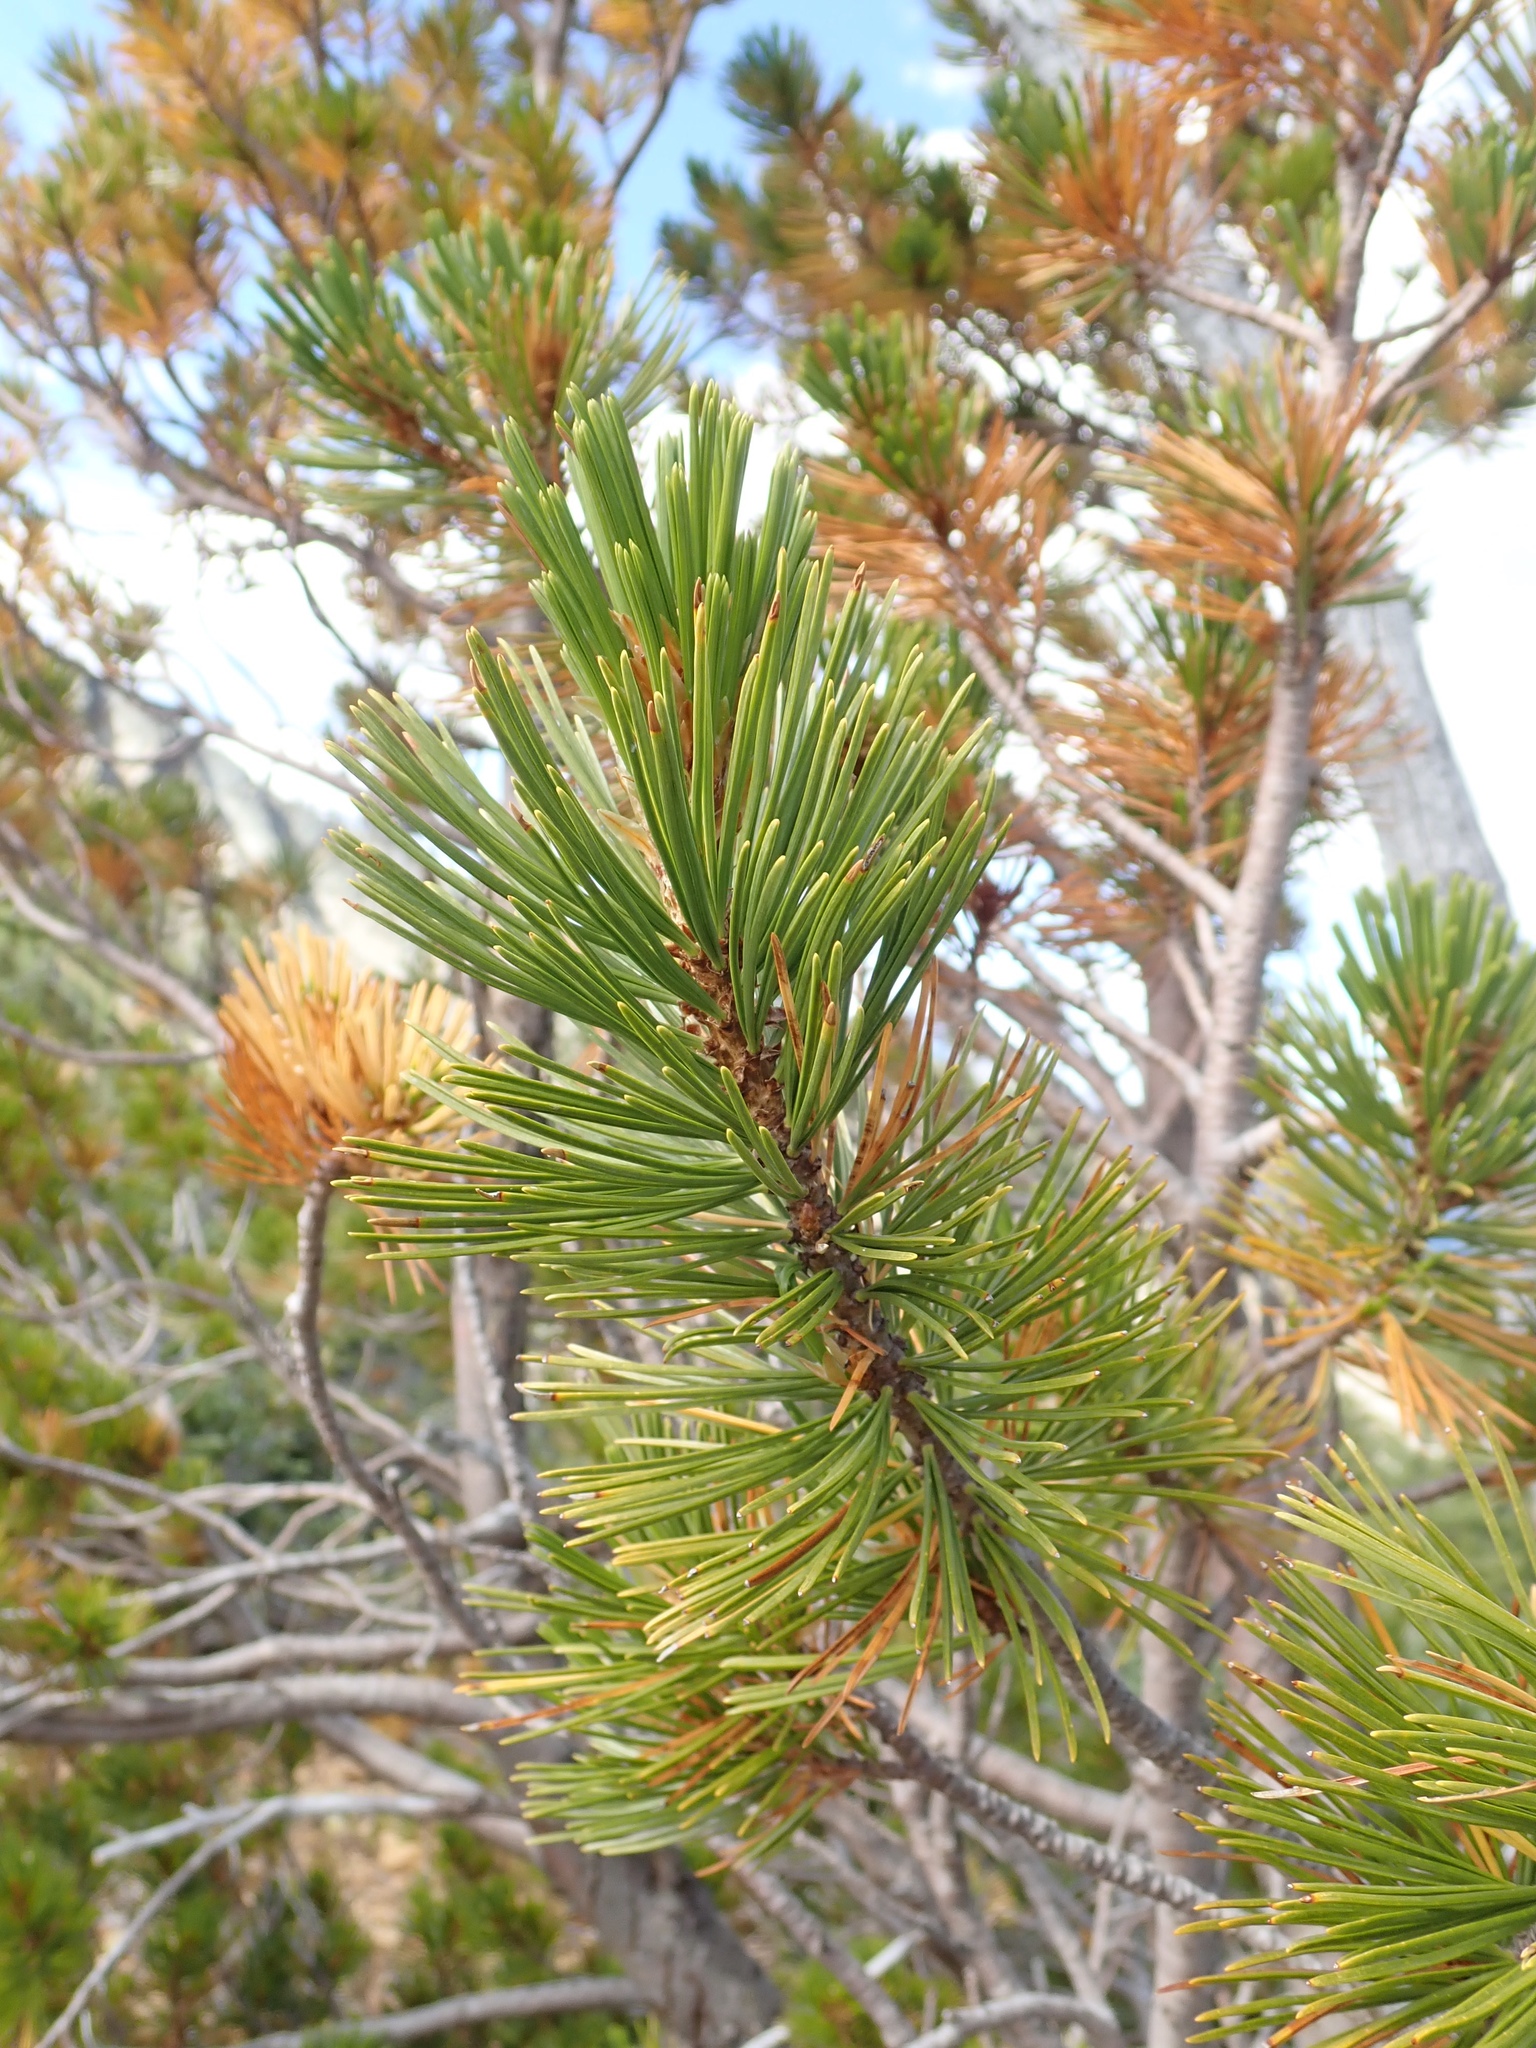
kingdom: Plantae
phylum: Tracheophyta
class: Pinopsida
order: Pinales
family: Pinaceae
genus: Pinus
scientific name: Pinus albicaulis
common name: Whitebark pine
